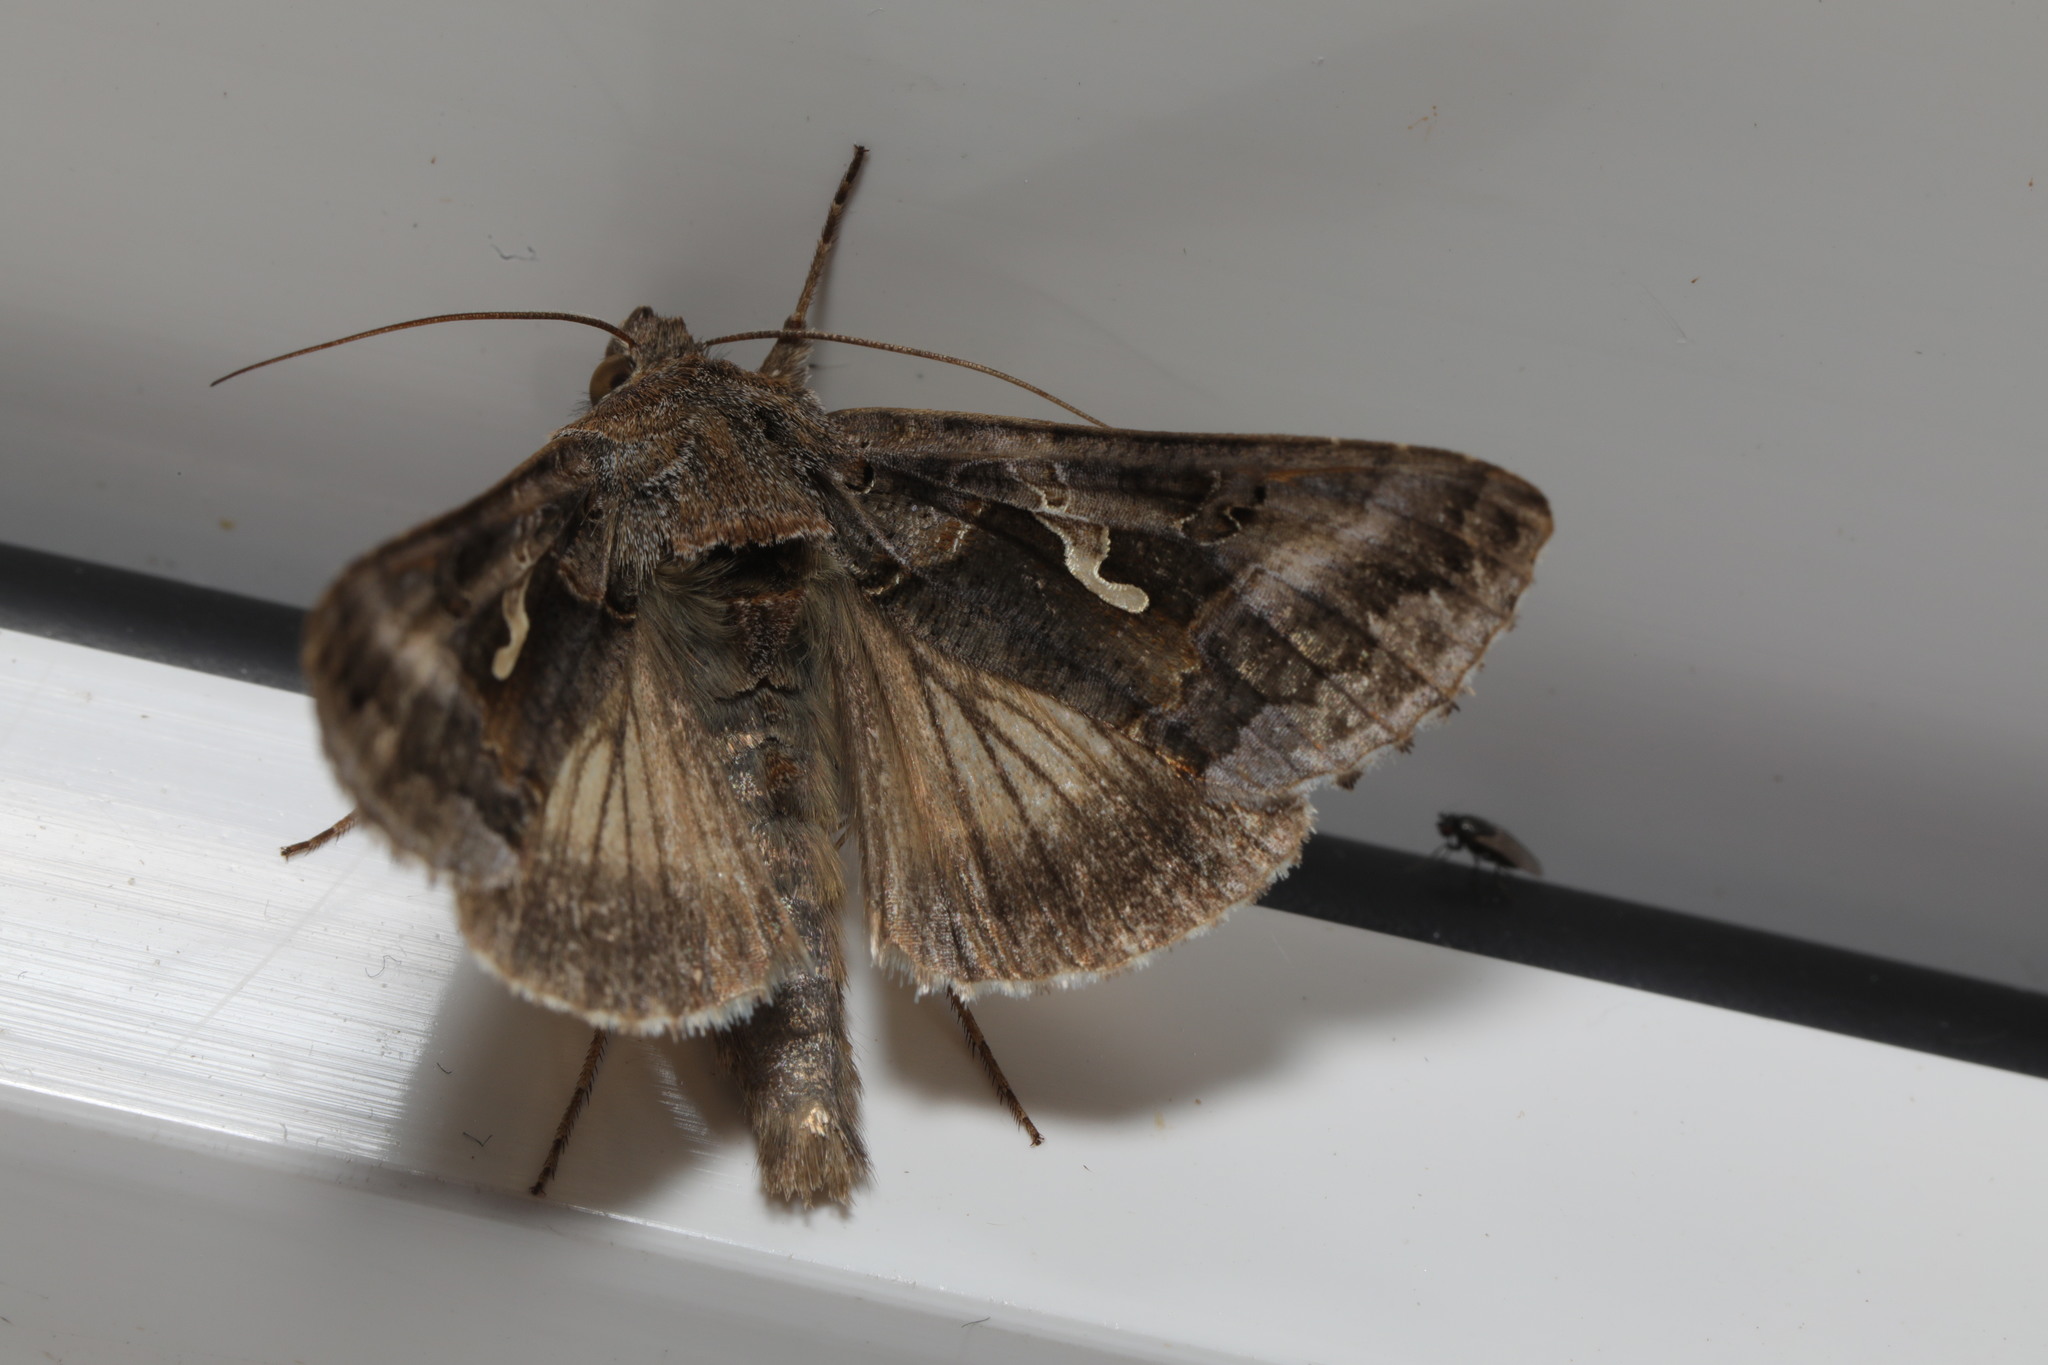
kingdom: Animalia
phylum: Arthropoda
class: Insecta
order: Lepidoptera
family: Noctuidae
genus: Autographa
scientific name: Autographa gamma
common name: Silver y
